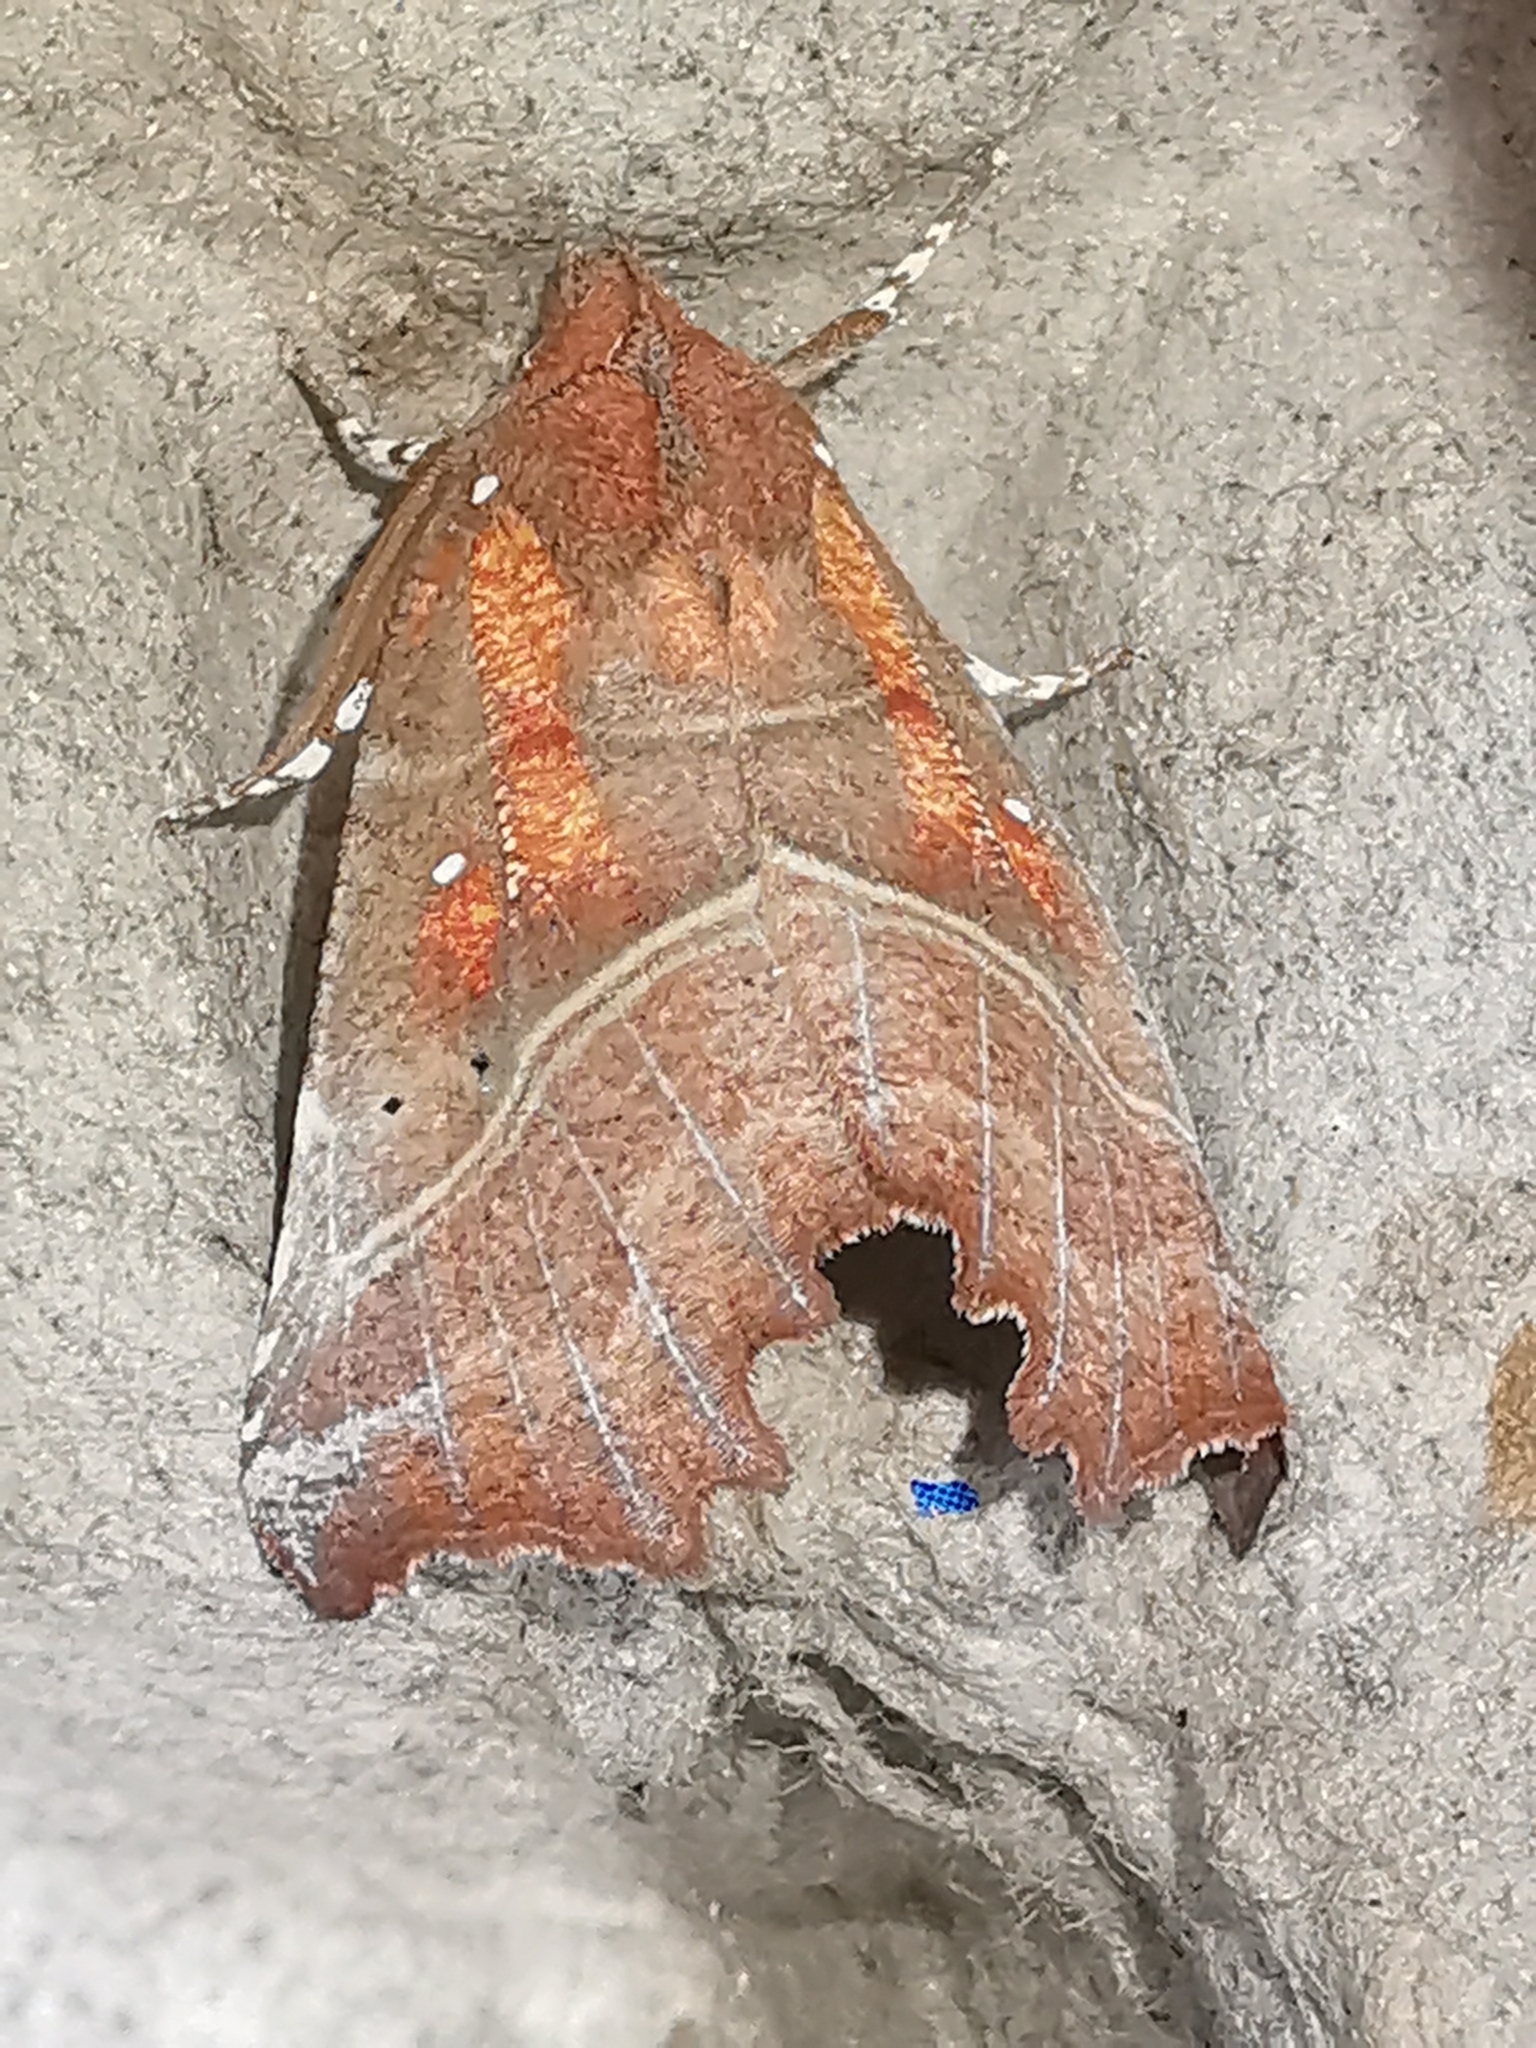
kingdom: Animalia
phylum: Arthropoda
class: Insecta
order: Lepidoptera
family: Erebidae
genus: Scoliopteryx
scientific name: Scoliopteryx libatrix
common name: Herald
